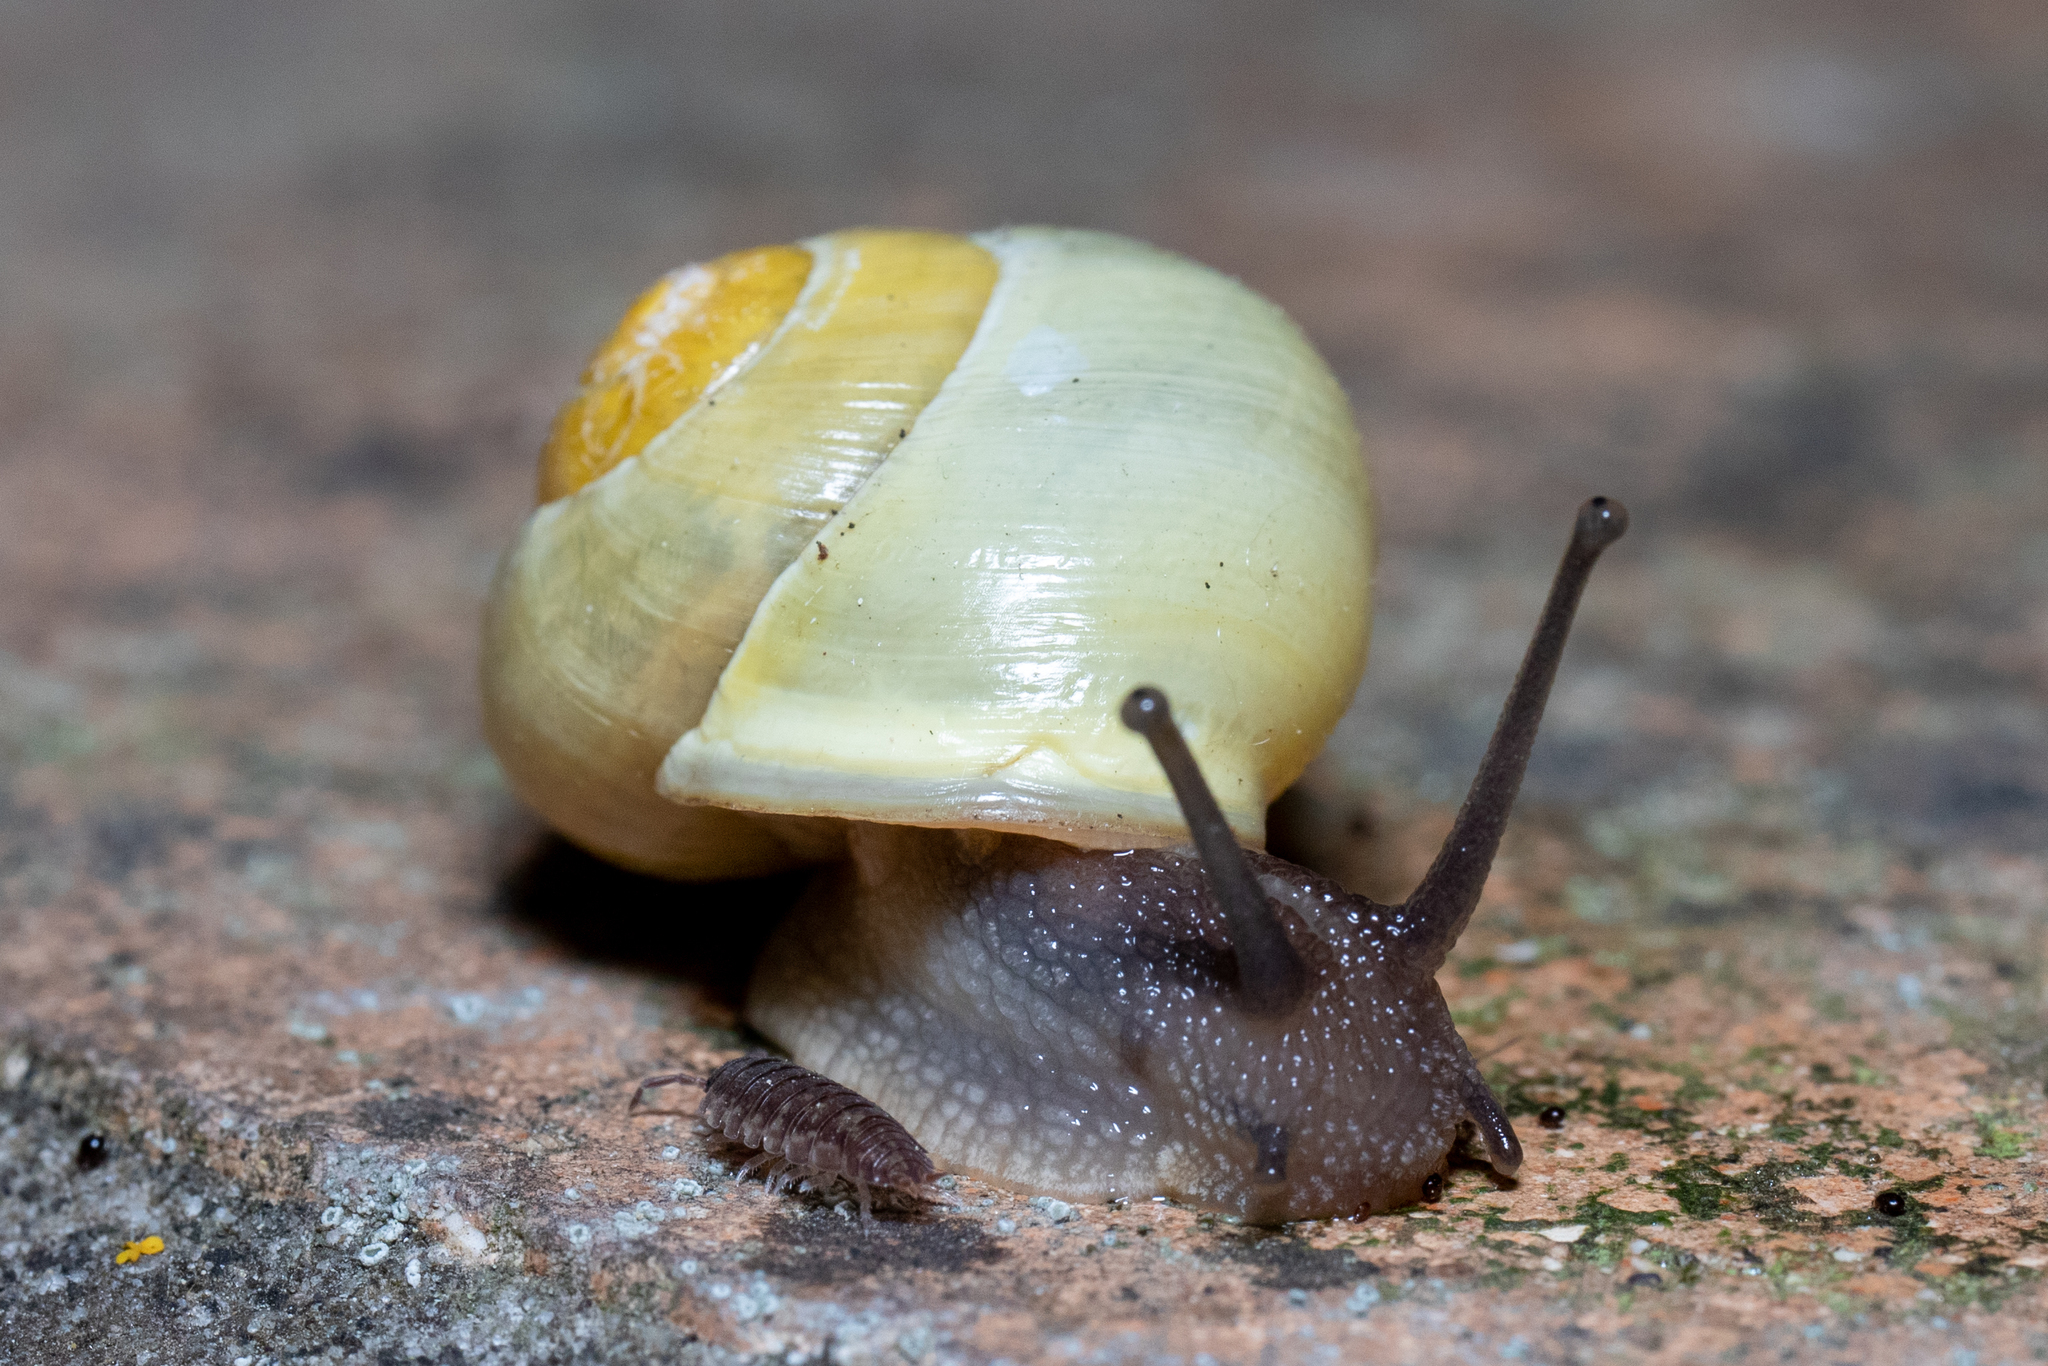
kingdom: Animalia
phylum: Mollusca
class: Gastropoda
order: Stylommatophora
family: Helicidae
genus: Cepaea
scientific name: Cepaea hortensis
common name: White-lip gardensnail
